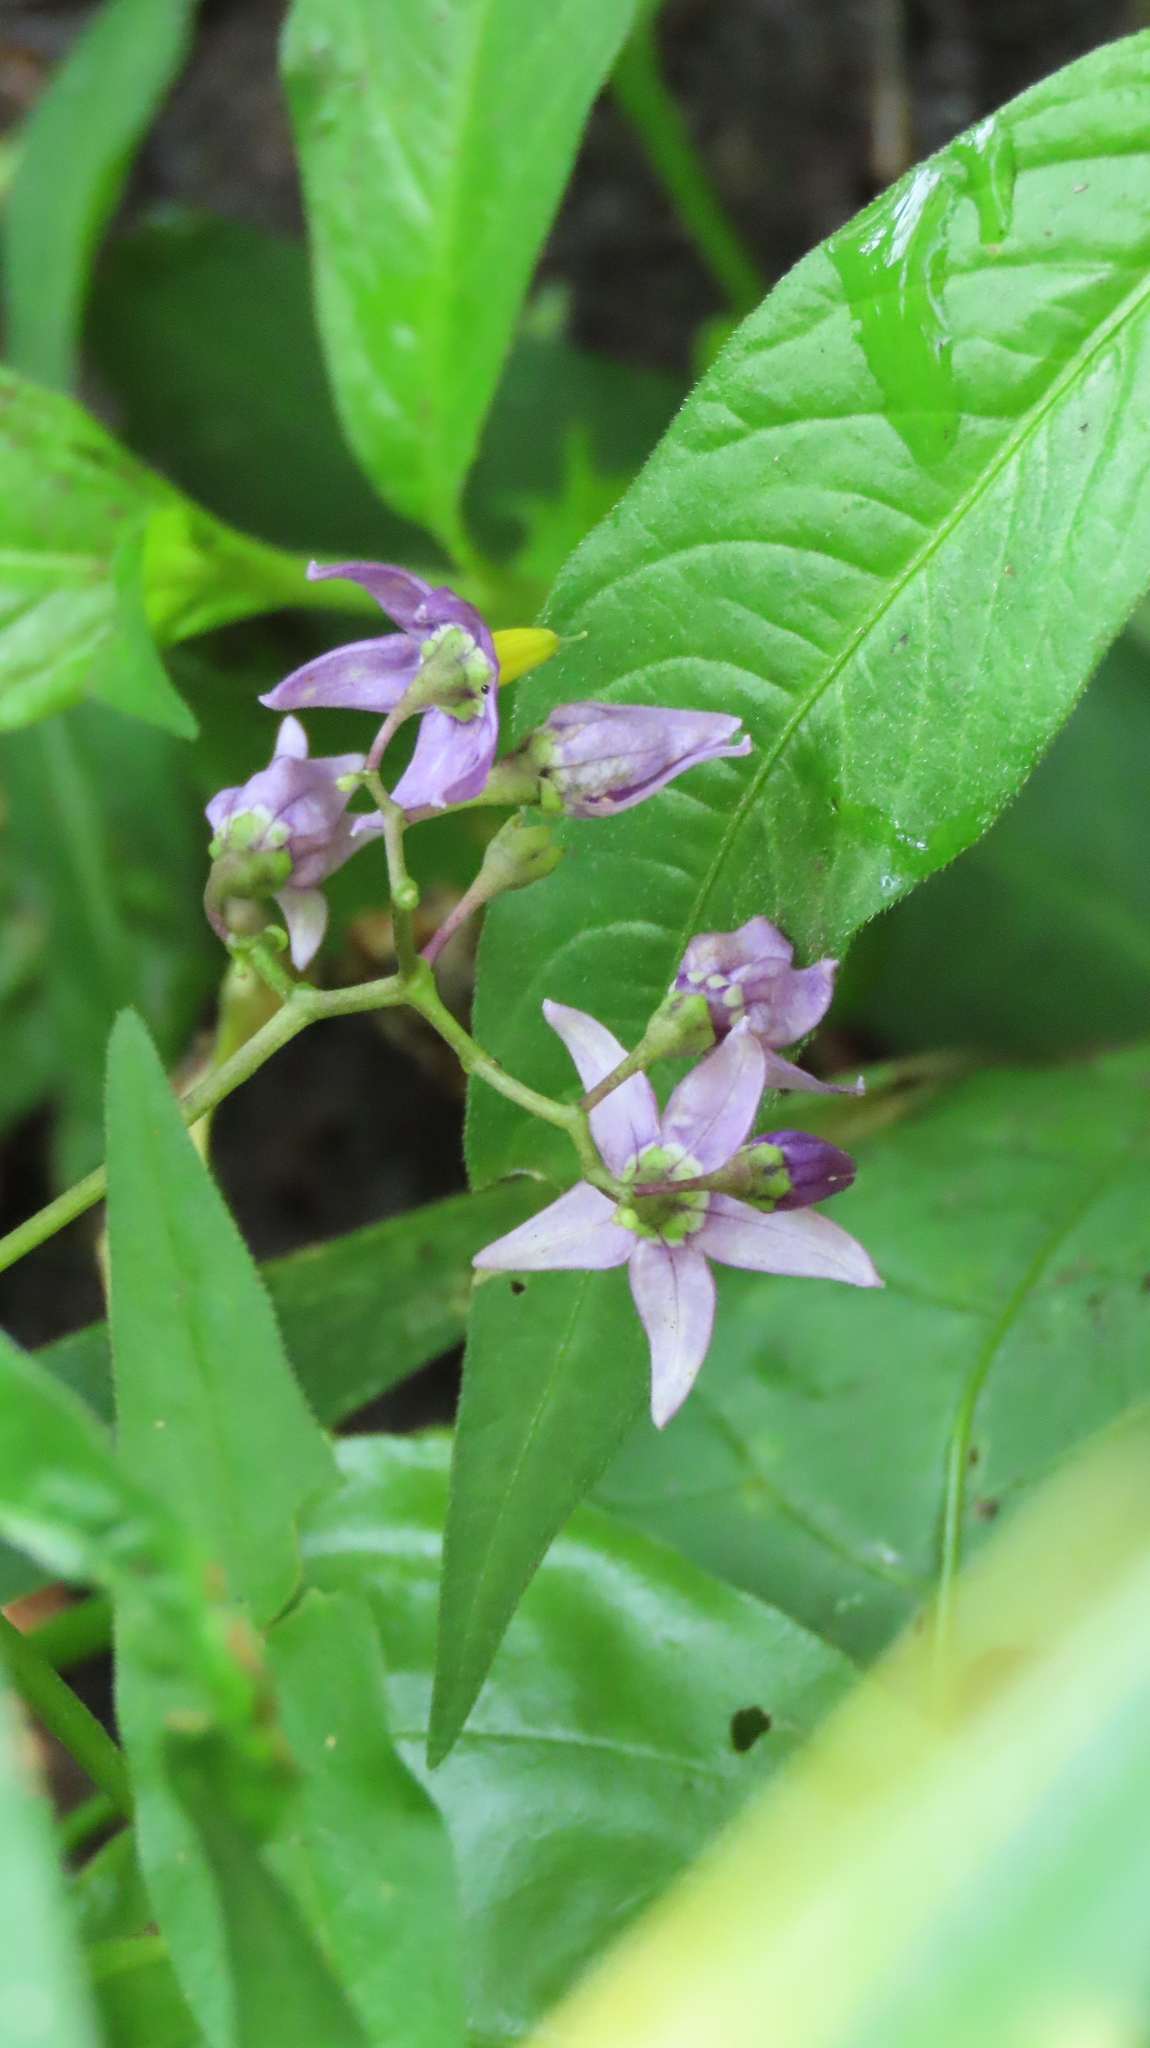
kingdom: Plantae
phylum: Tracheophyta
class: Magnoliopsida
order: Solanales
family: Solanaceae
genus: Solanum
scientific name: Solanum dulcamara
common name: Climbing nightshade
